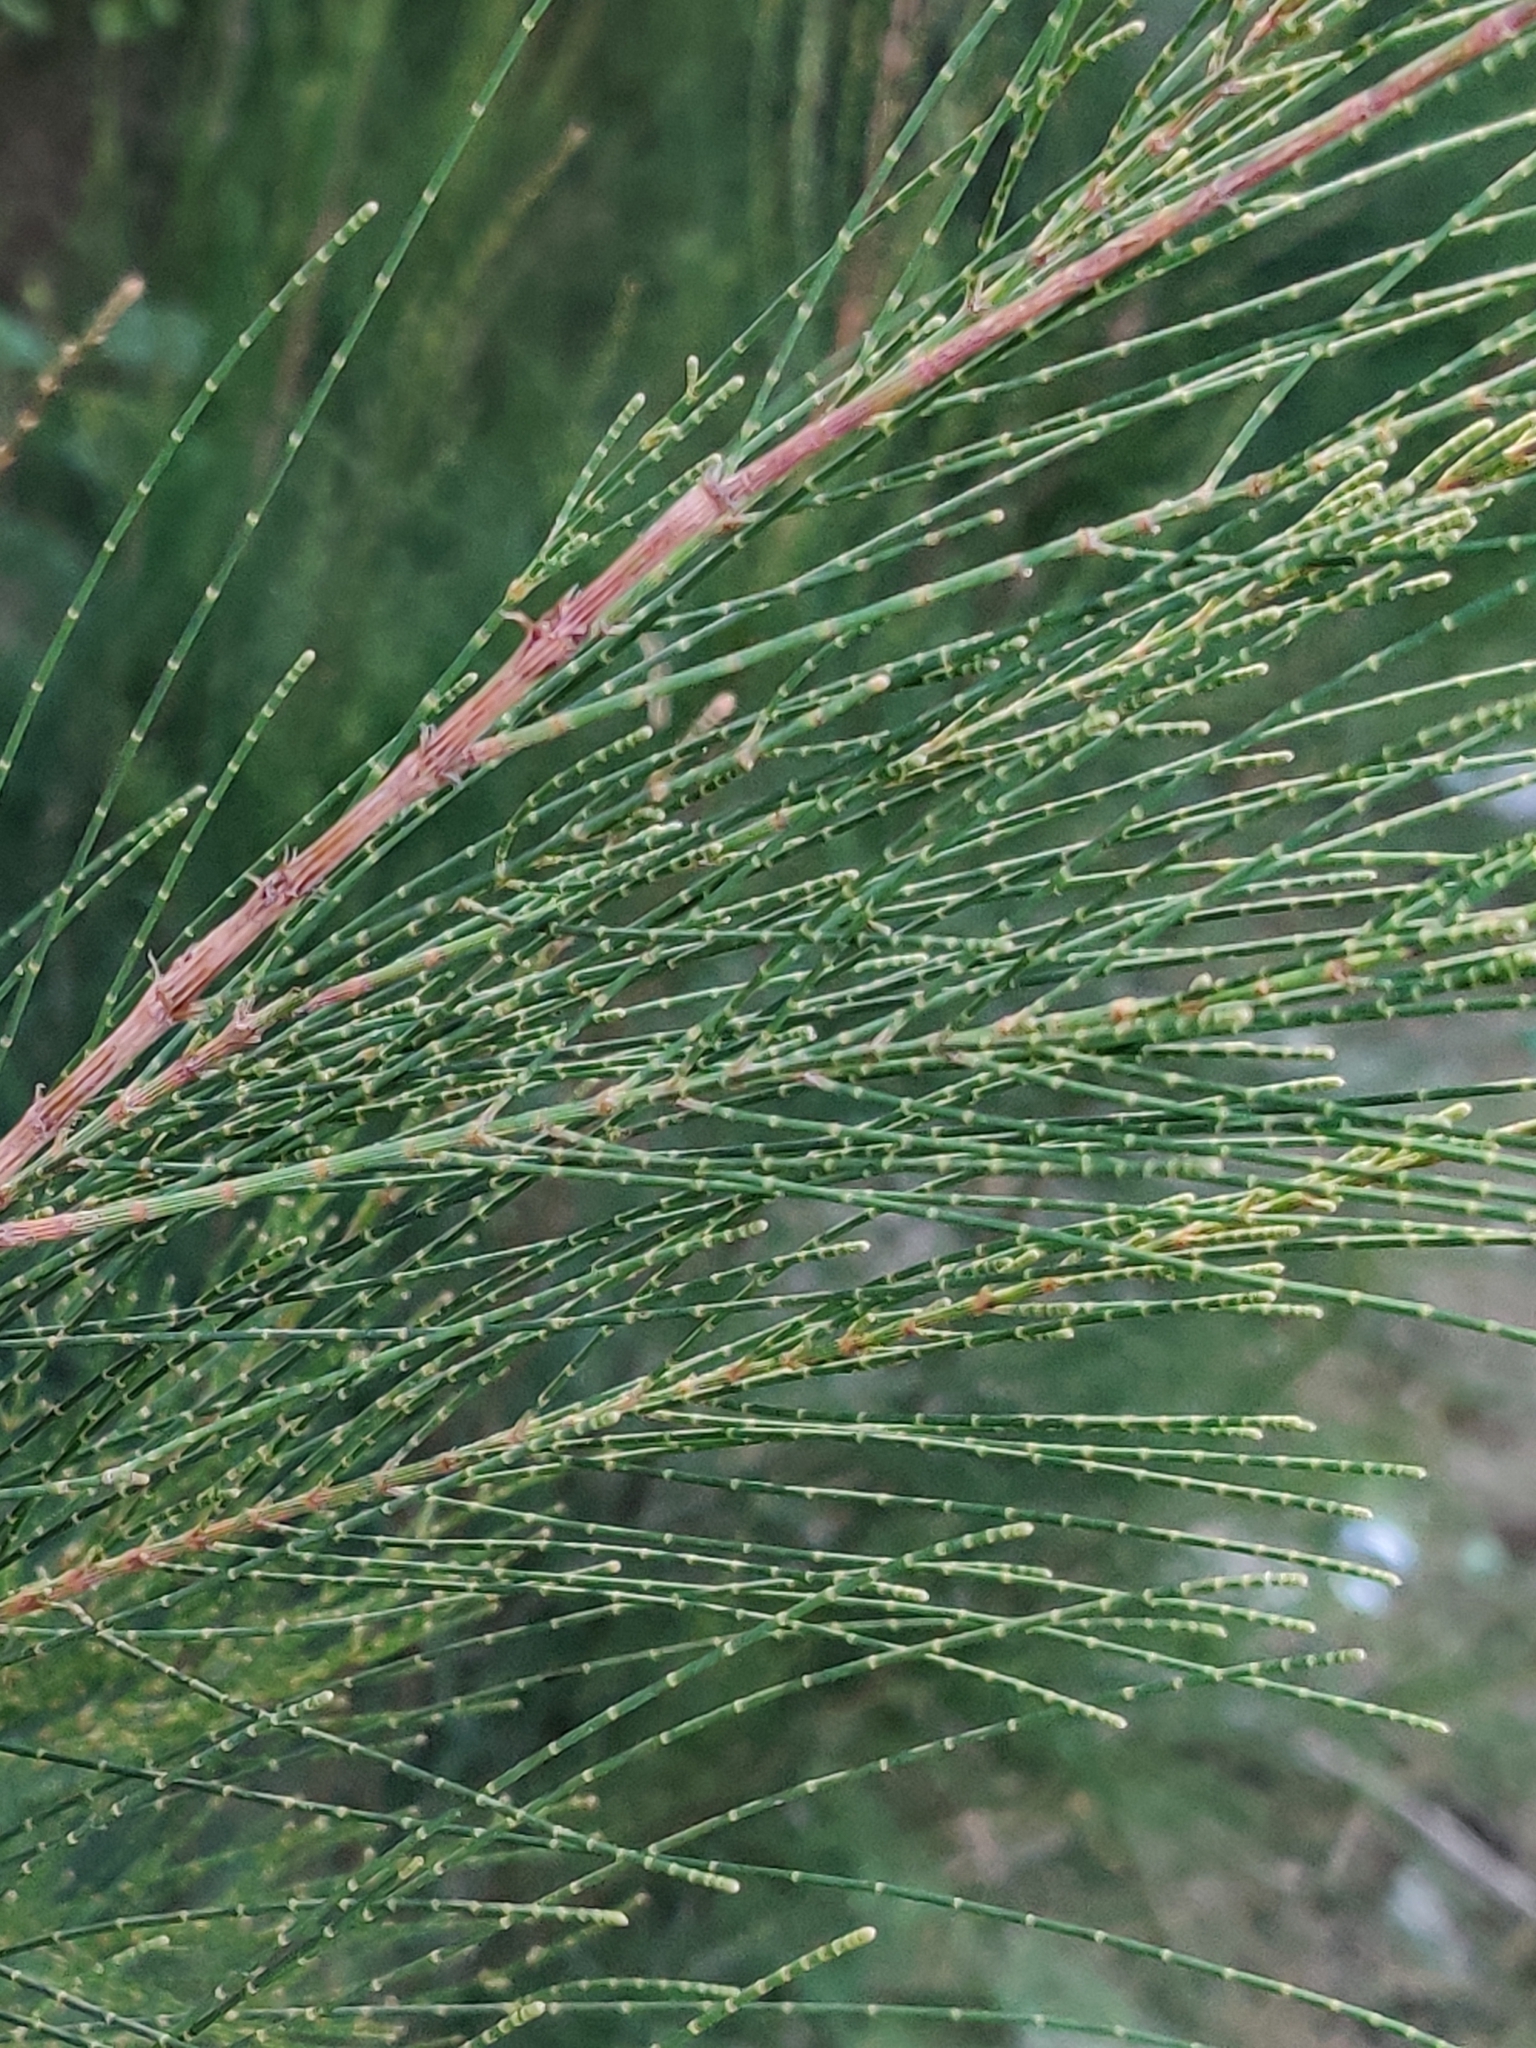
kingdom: Plantae
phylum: Tracheophyta
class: Magnoliopsida
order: Fagales
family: Casuarinaceae
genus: Casuarina
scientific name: Casuarina equisetifolia
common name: Beach sheoak
